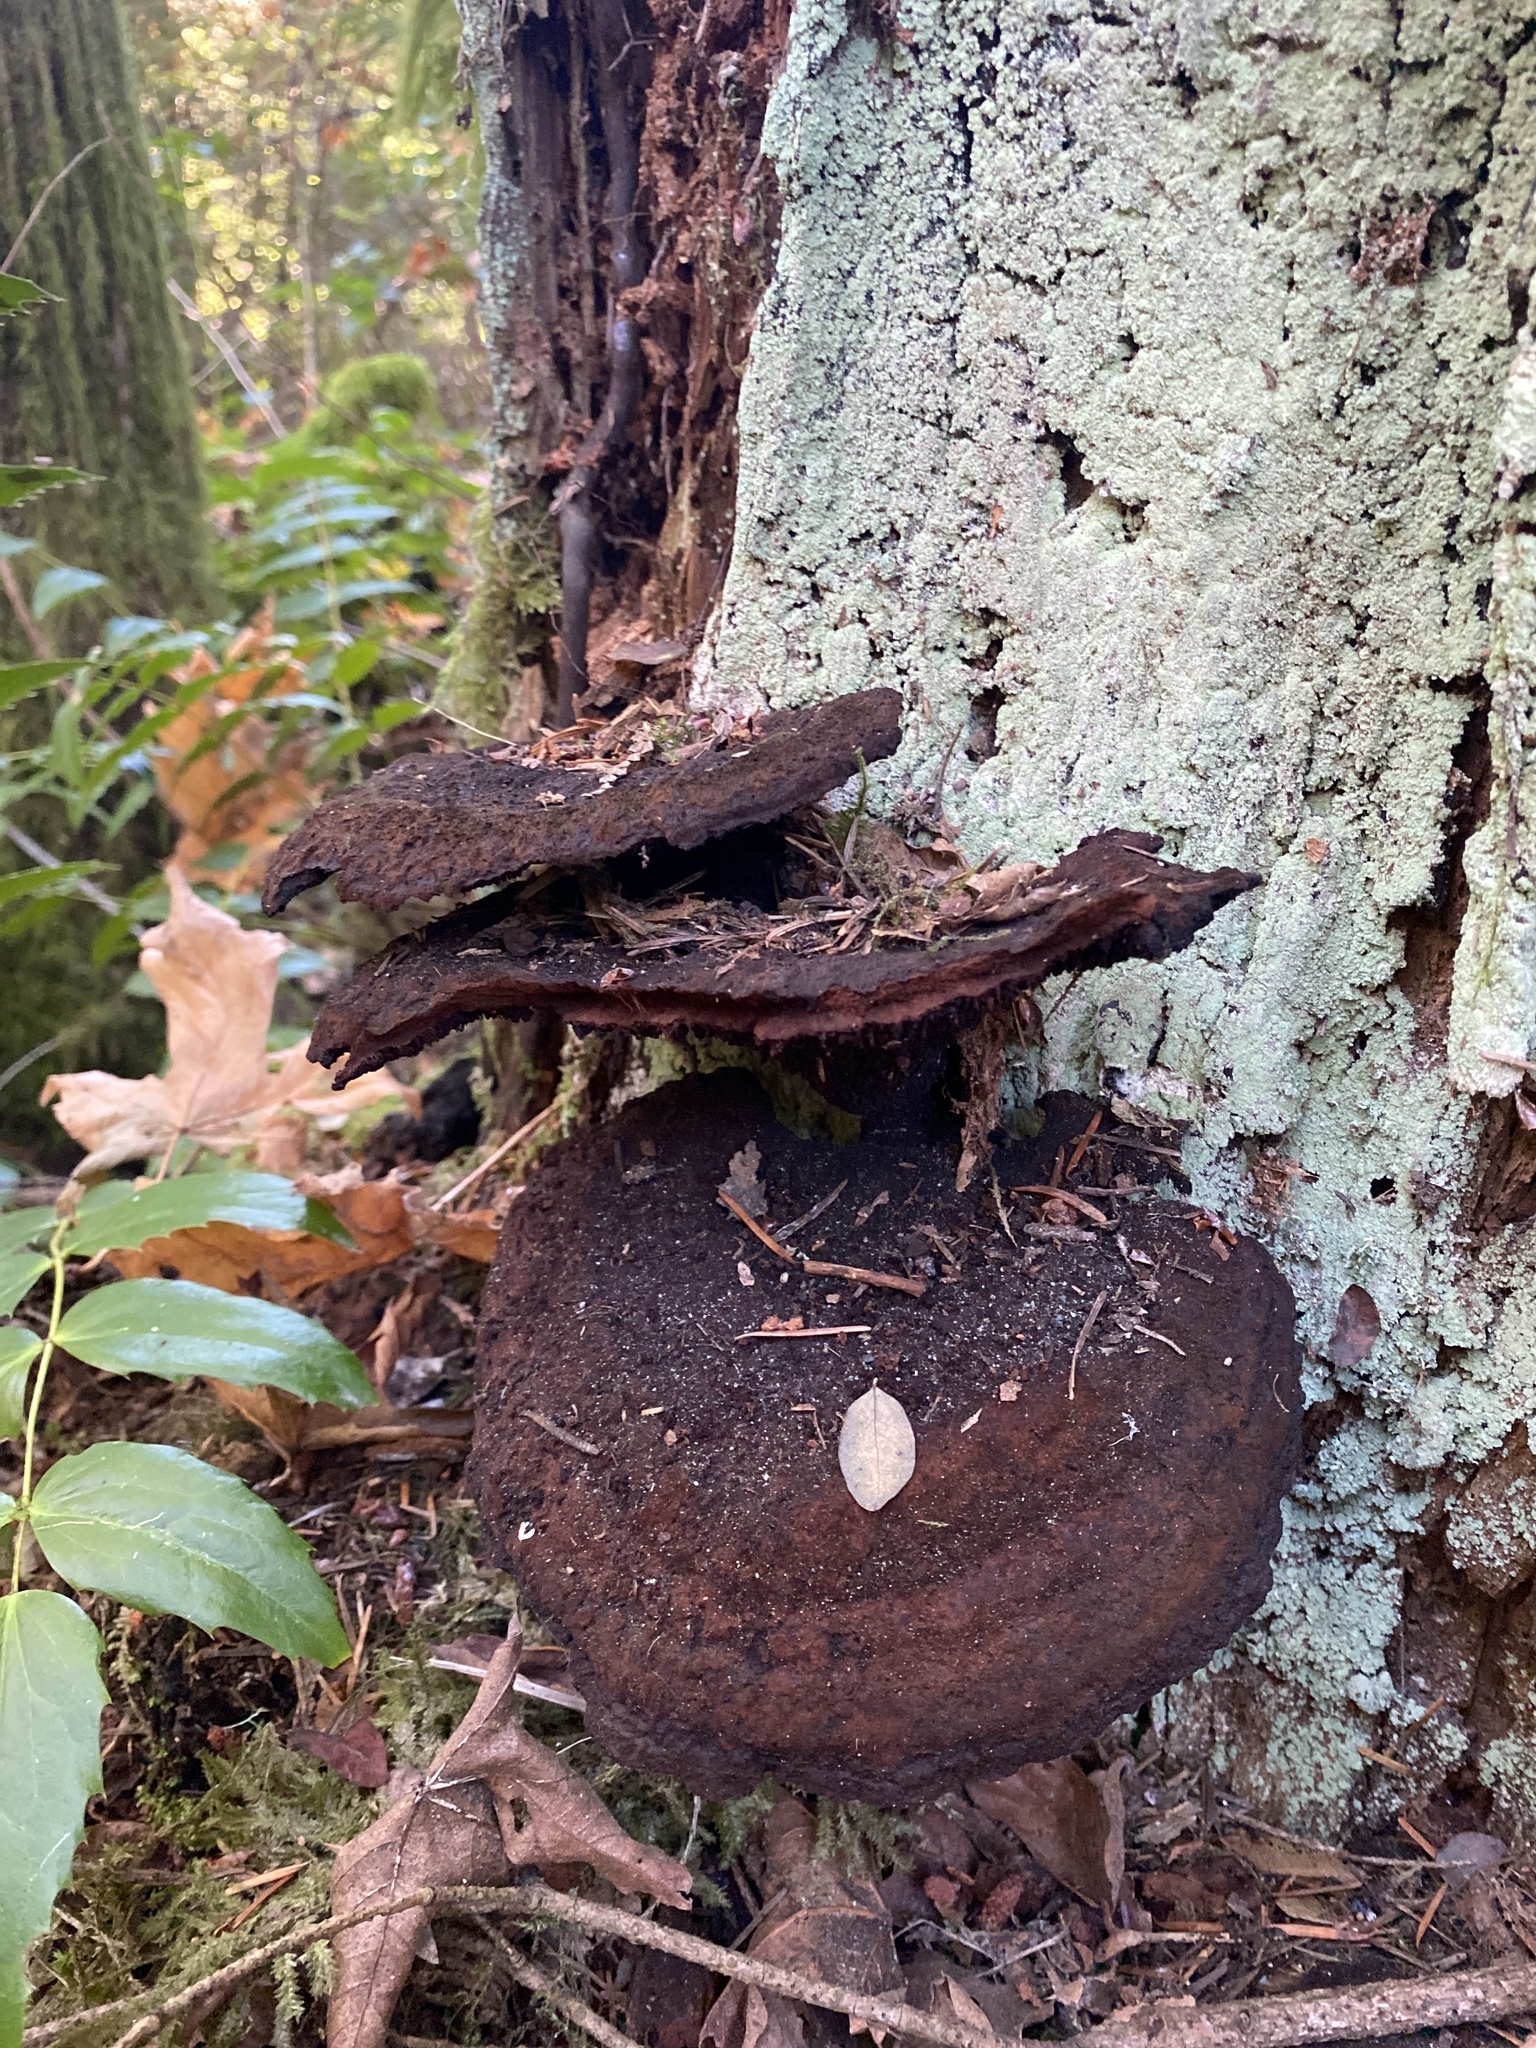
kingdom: Fungi
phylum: Basidiomycota
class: Agaricomycetes
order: Polyporales
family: Laetiporaceae
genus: Phaeolus
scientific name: Phaeolus schweinitzii
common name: Dyer's mazegill
